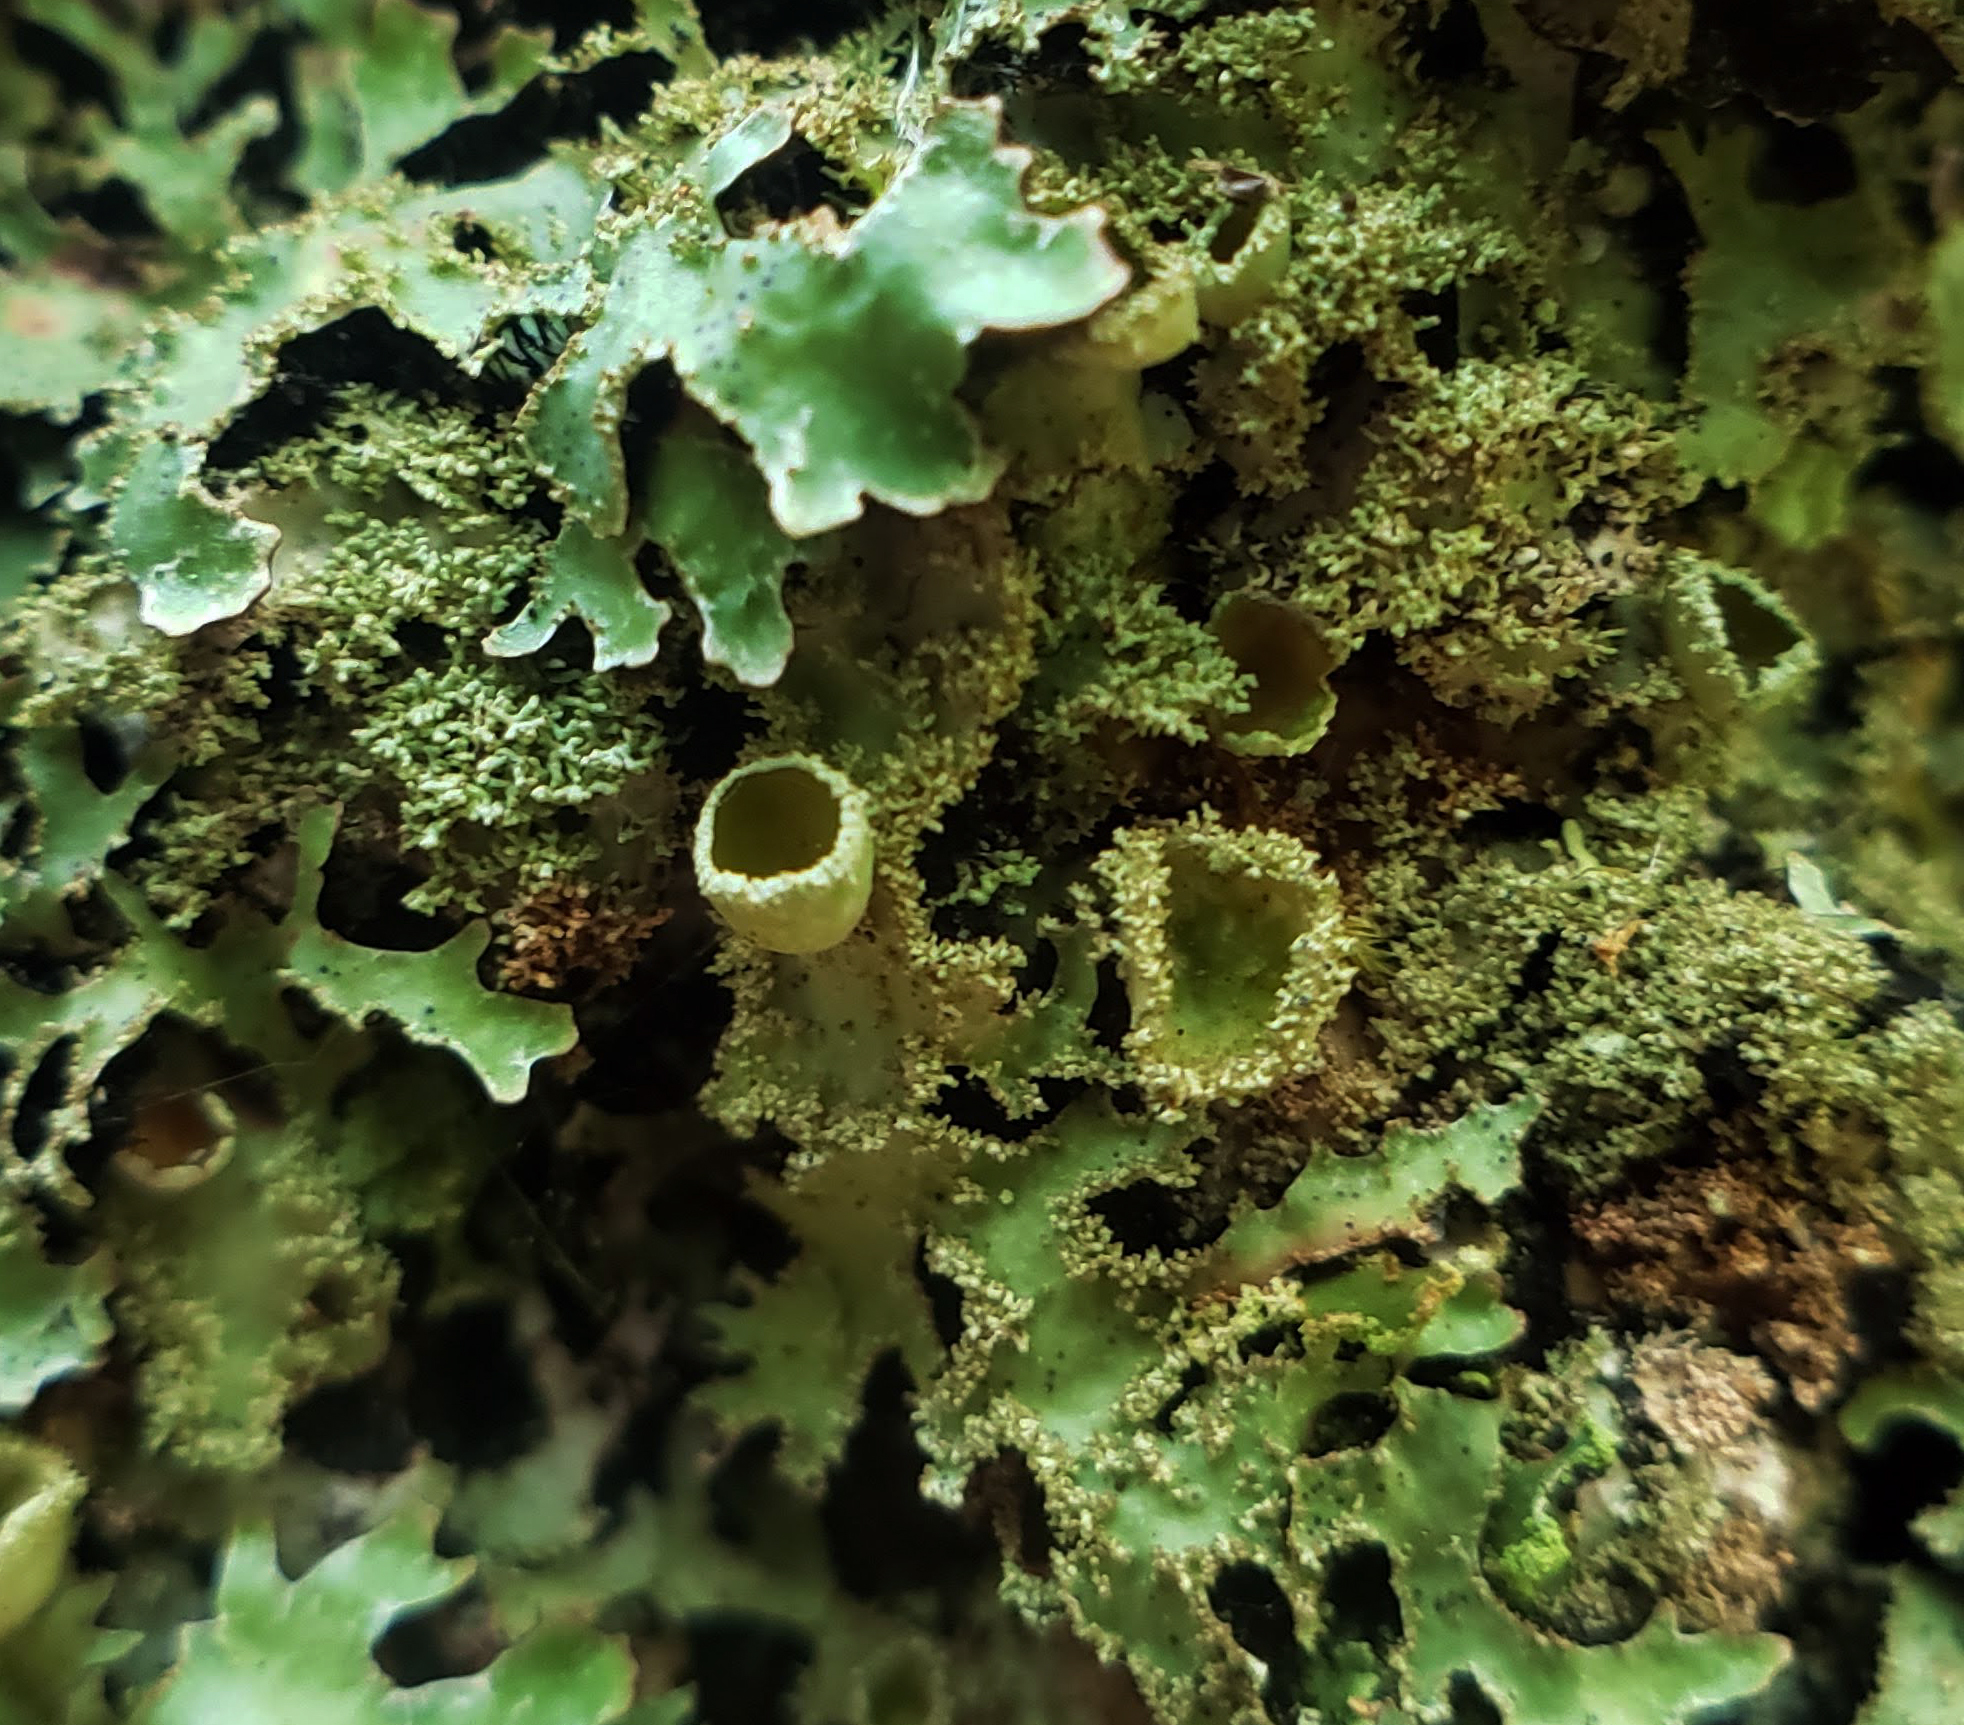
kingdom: Fungi
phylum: Ascomycota
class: Lecanoromycetes
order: Lecanorales
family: Parmeliaceae
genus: Parmelia
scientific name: Parmelia squarrosa
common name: Bottle brush shield lichen
